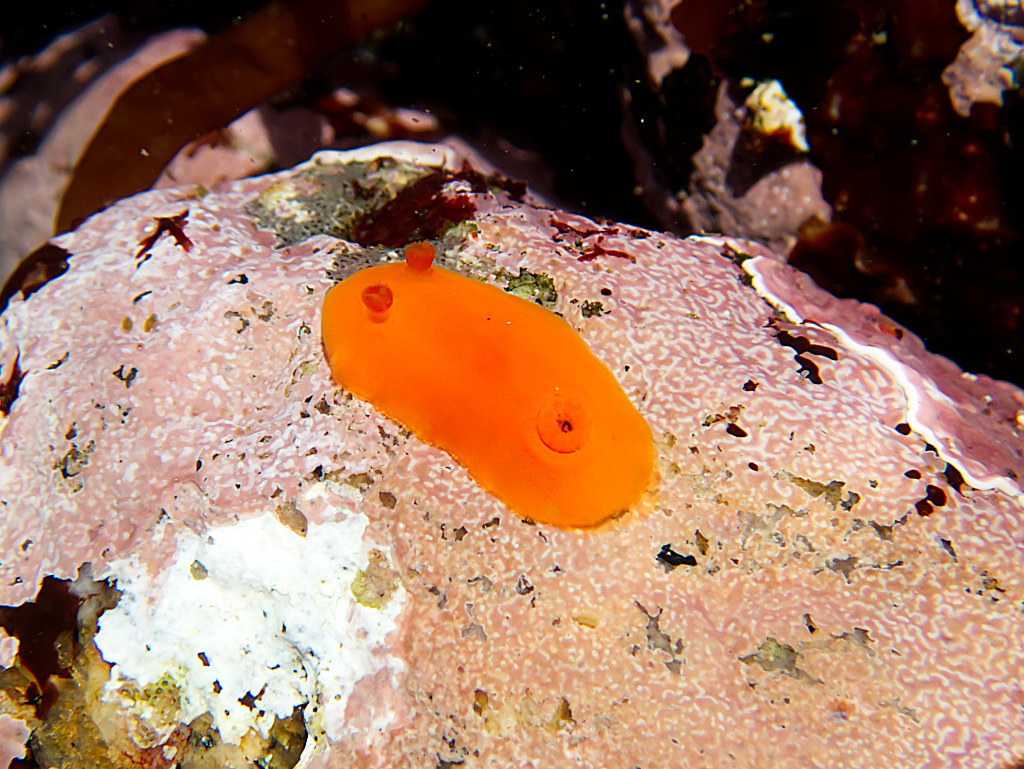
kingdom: Animalia
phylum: Mollusca
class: Gastropoda
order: Nudibranchia
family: Discodorididae
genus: Rostanga
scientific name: Rostanga pulchra
